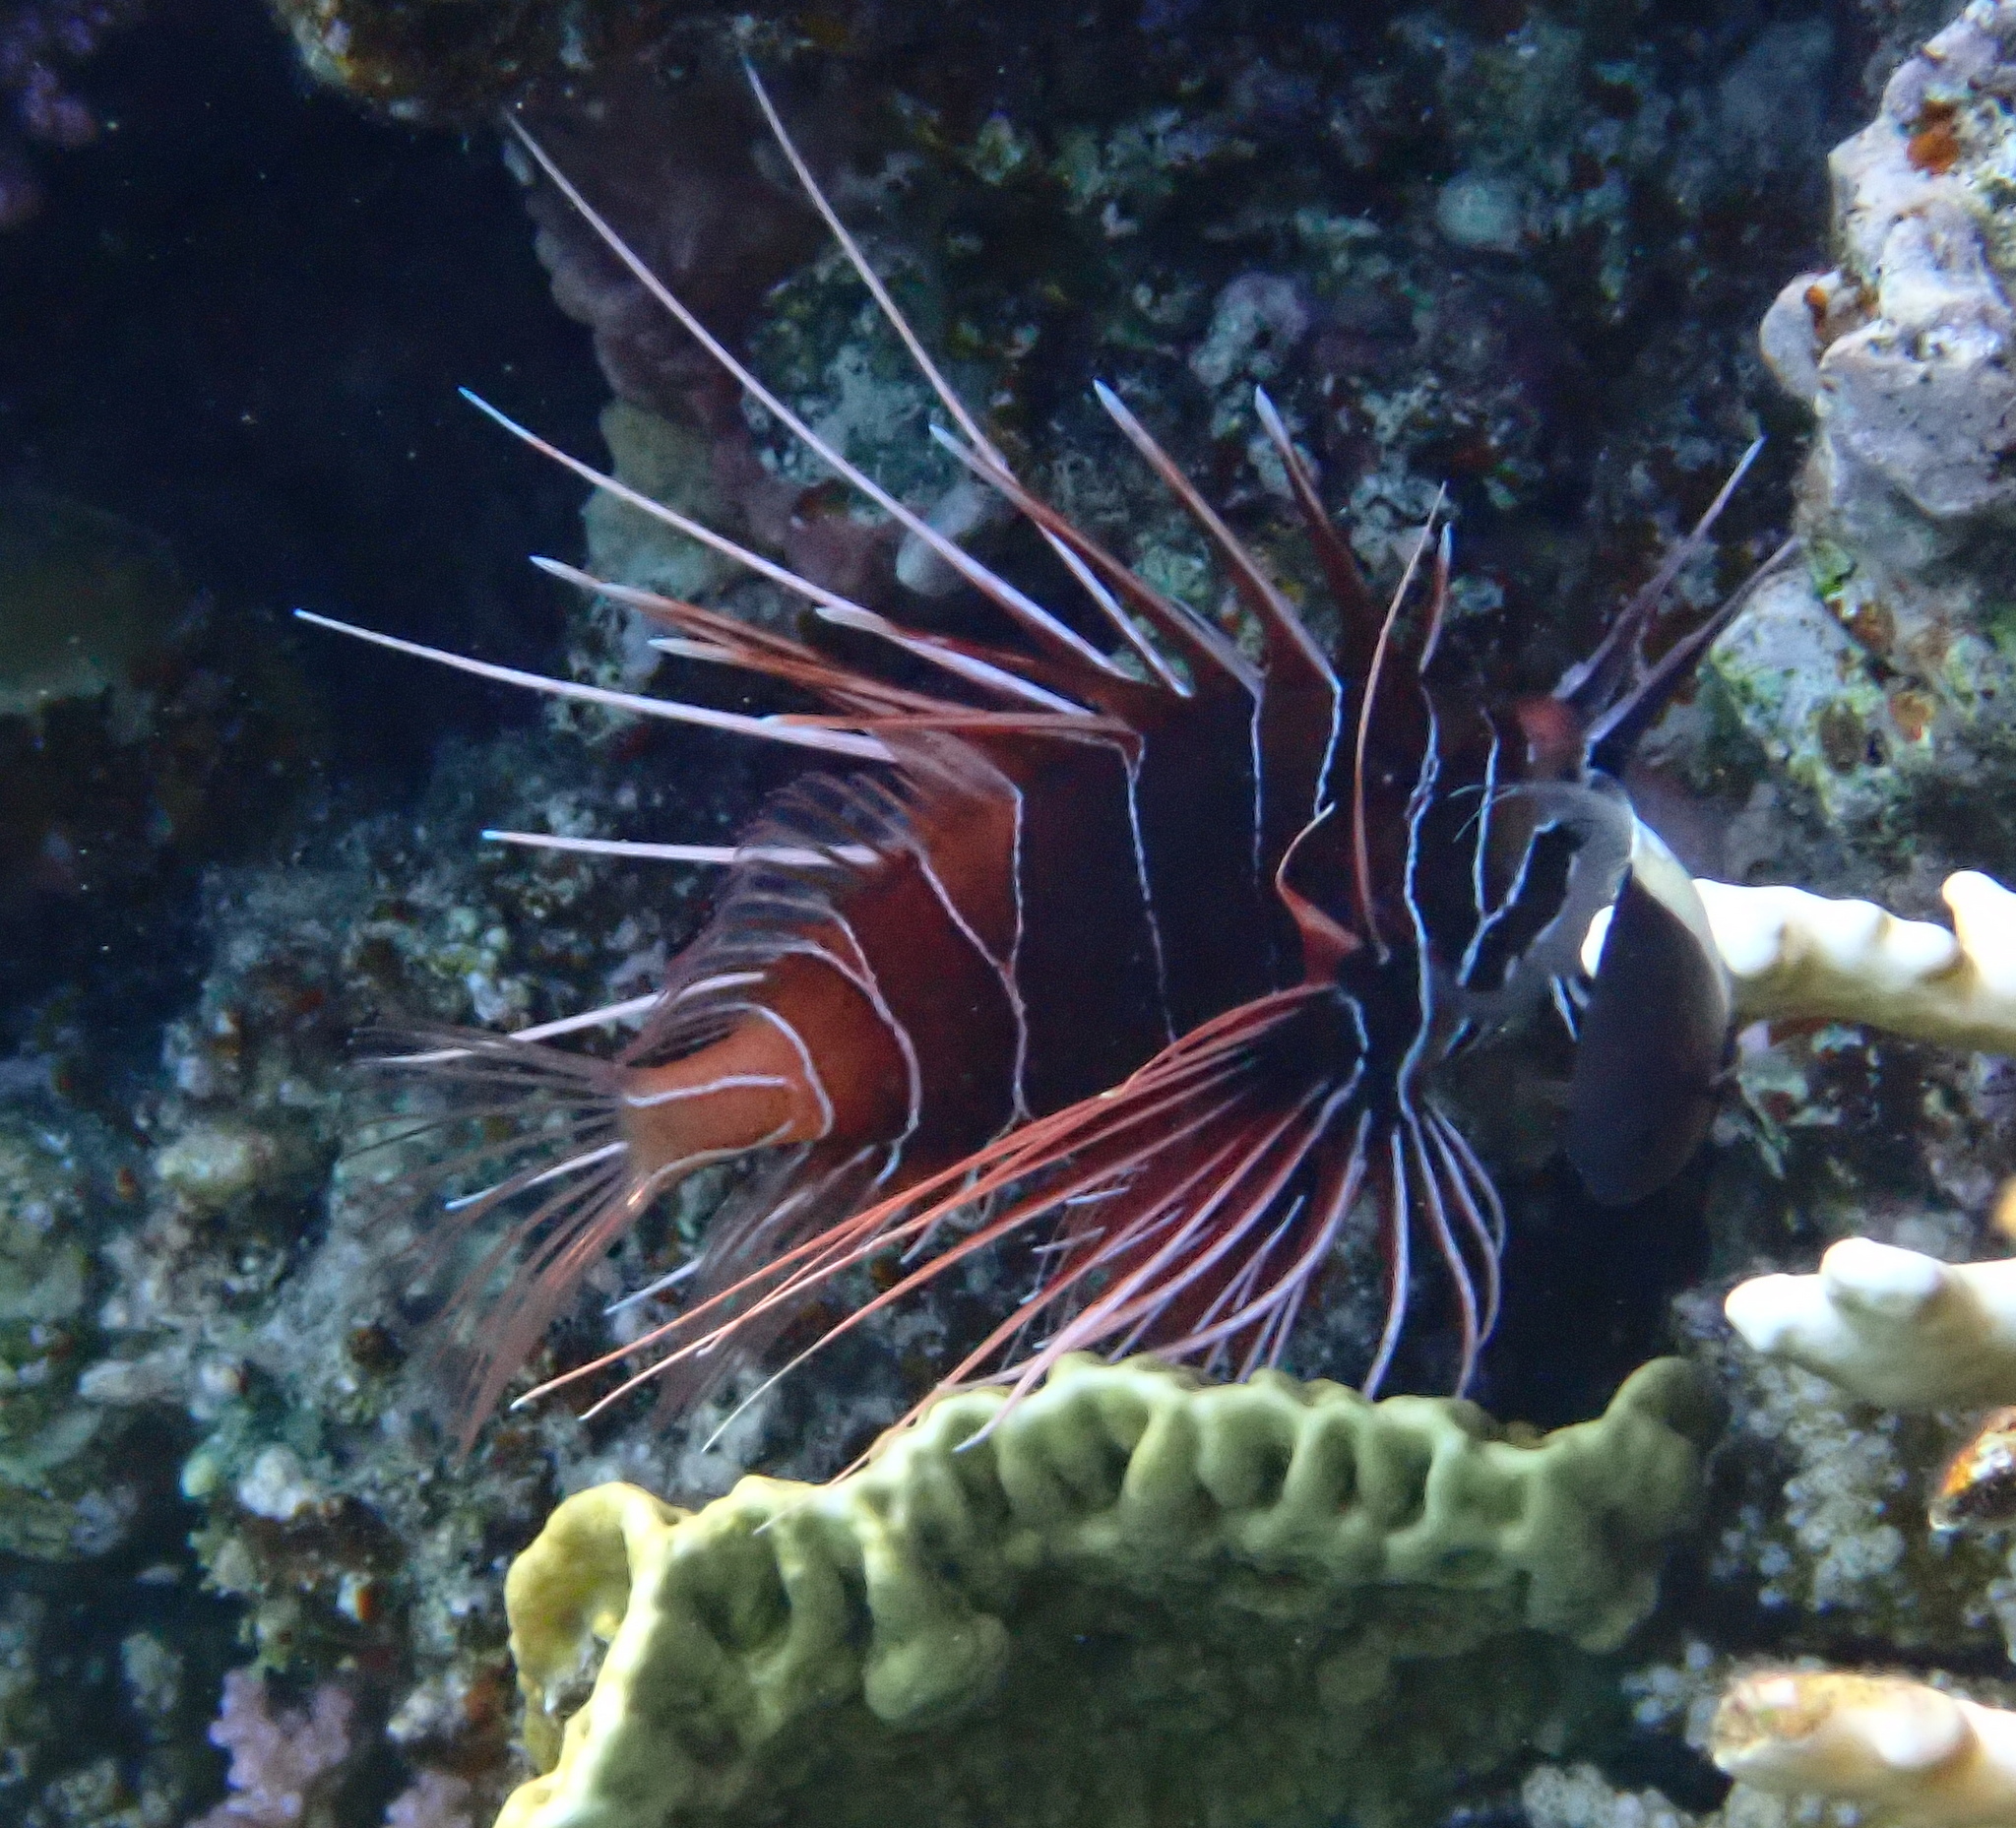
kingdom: Animalia
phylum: Chordata
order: Scorpaeniformes
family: Scorpaenidae
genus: Pterois
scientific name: Pterois cincta
